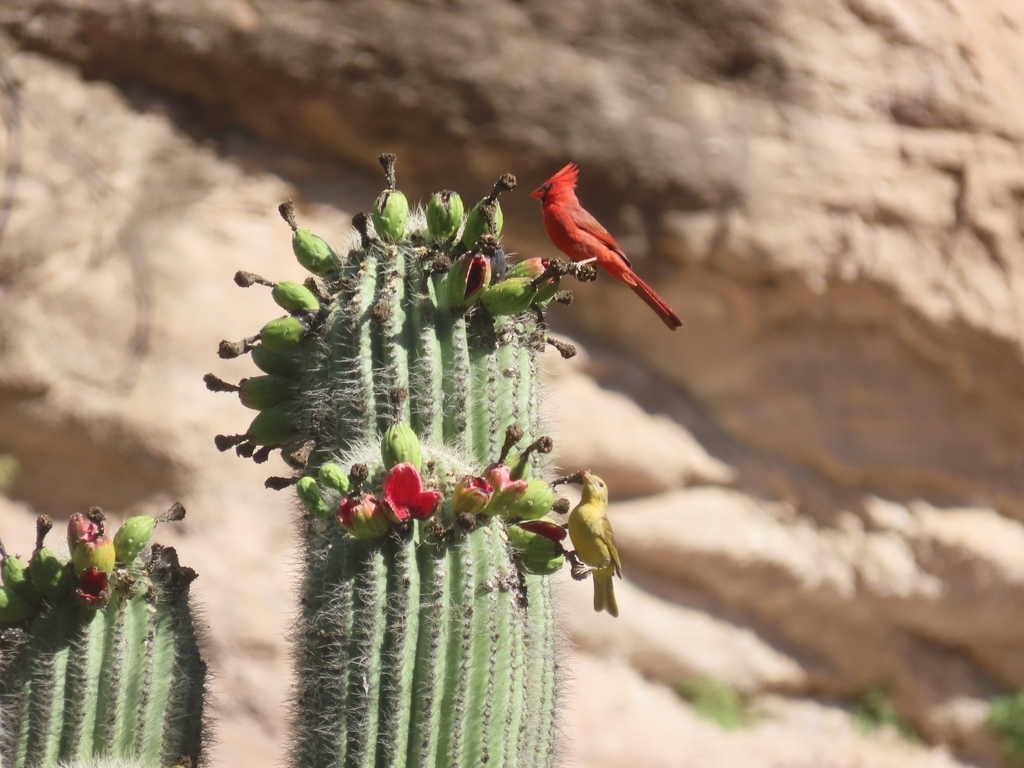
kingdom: Plantae
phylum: Tracheophyta
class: Magnoliopsida
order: Caryophyllales
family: Cactaceae
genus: Carnegiea
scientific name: Carnegiea gigantea
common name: Saguaro
